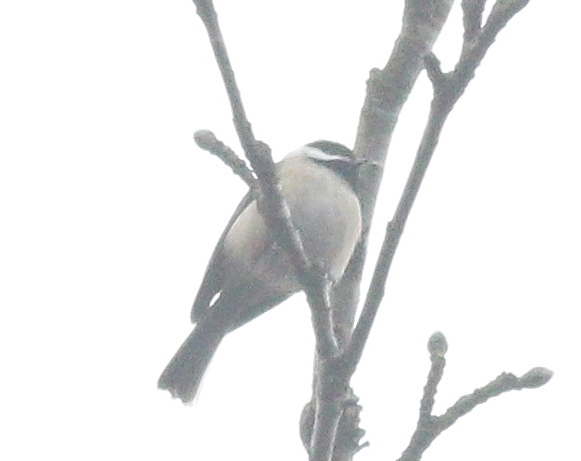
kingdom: Animalia
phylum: Chordata
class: Aves
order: Passeriformes
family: Paridae
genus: Poecile
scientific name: Poecile carolinensis
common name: Carolina chickadee
